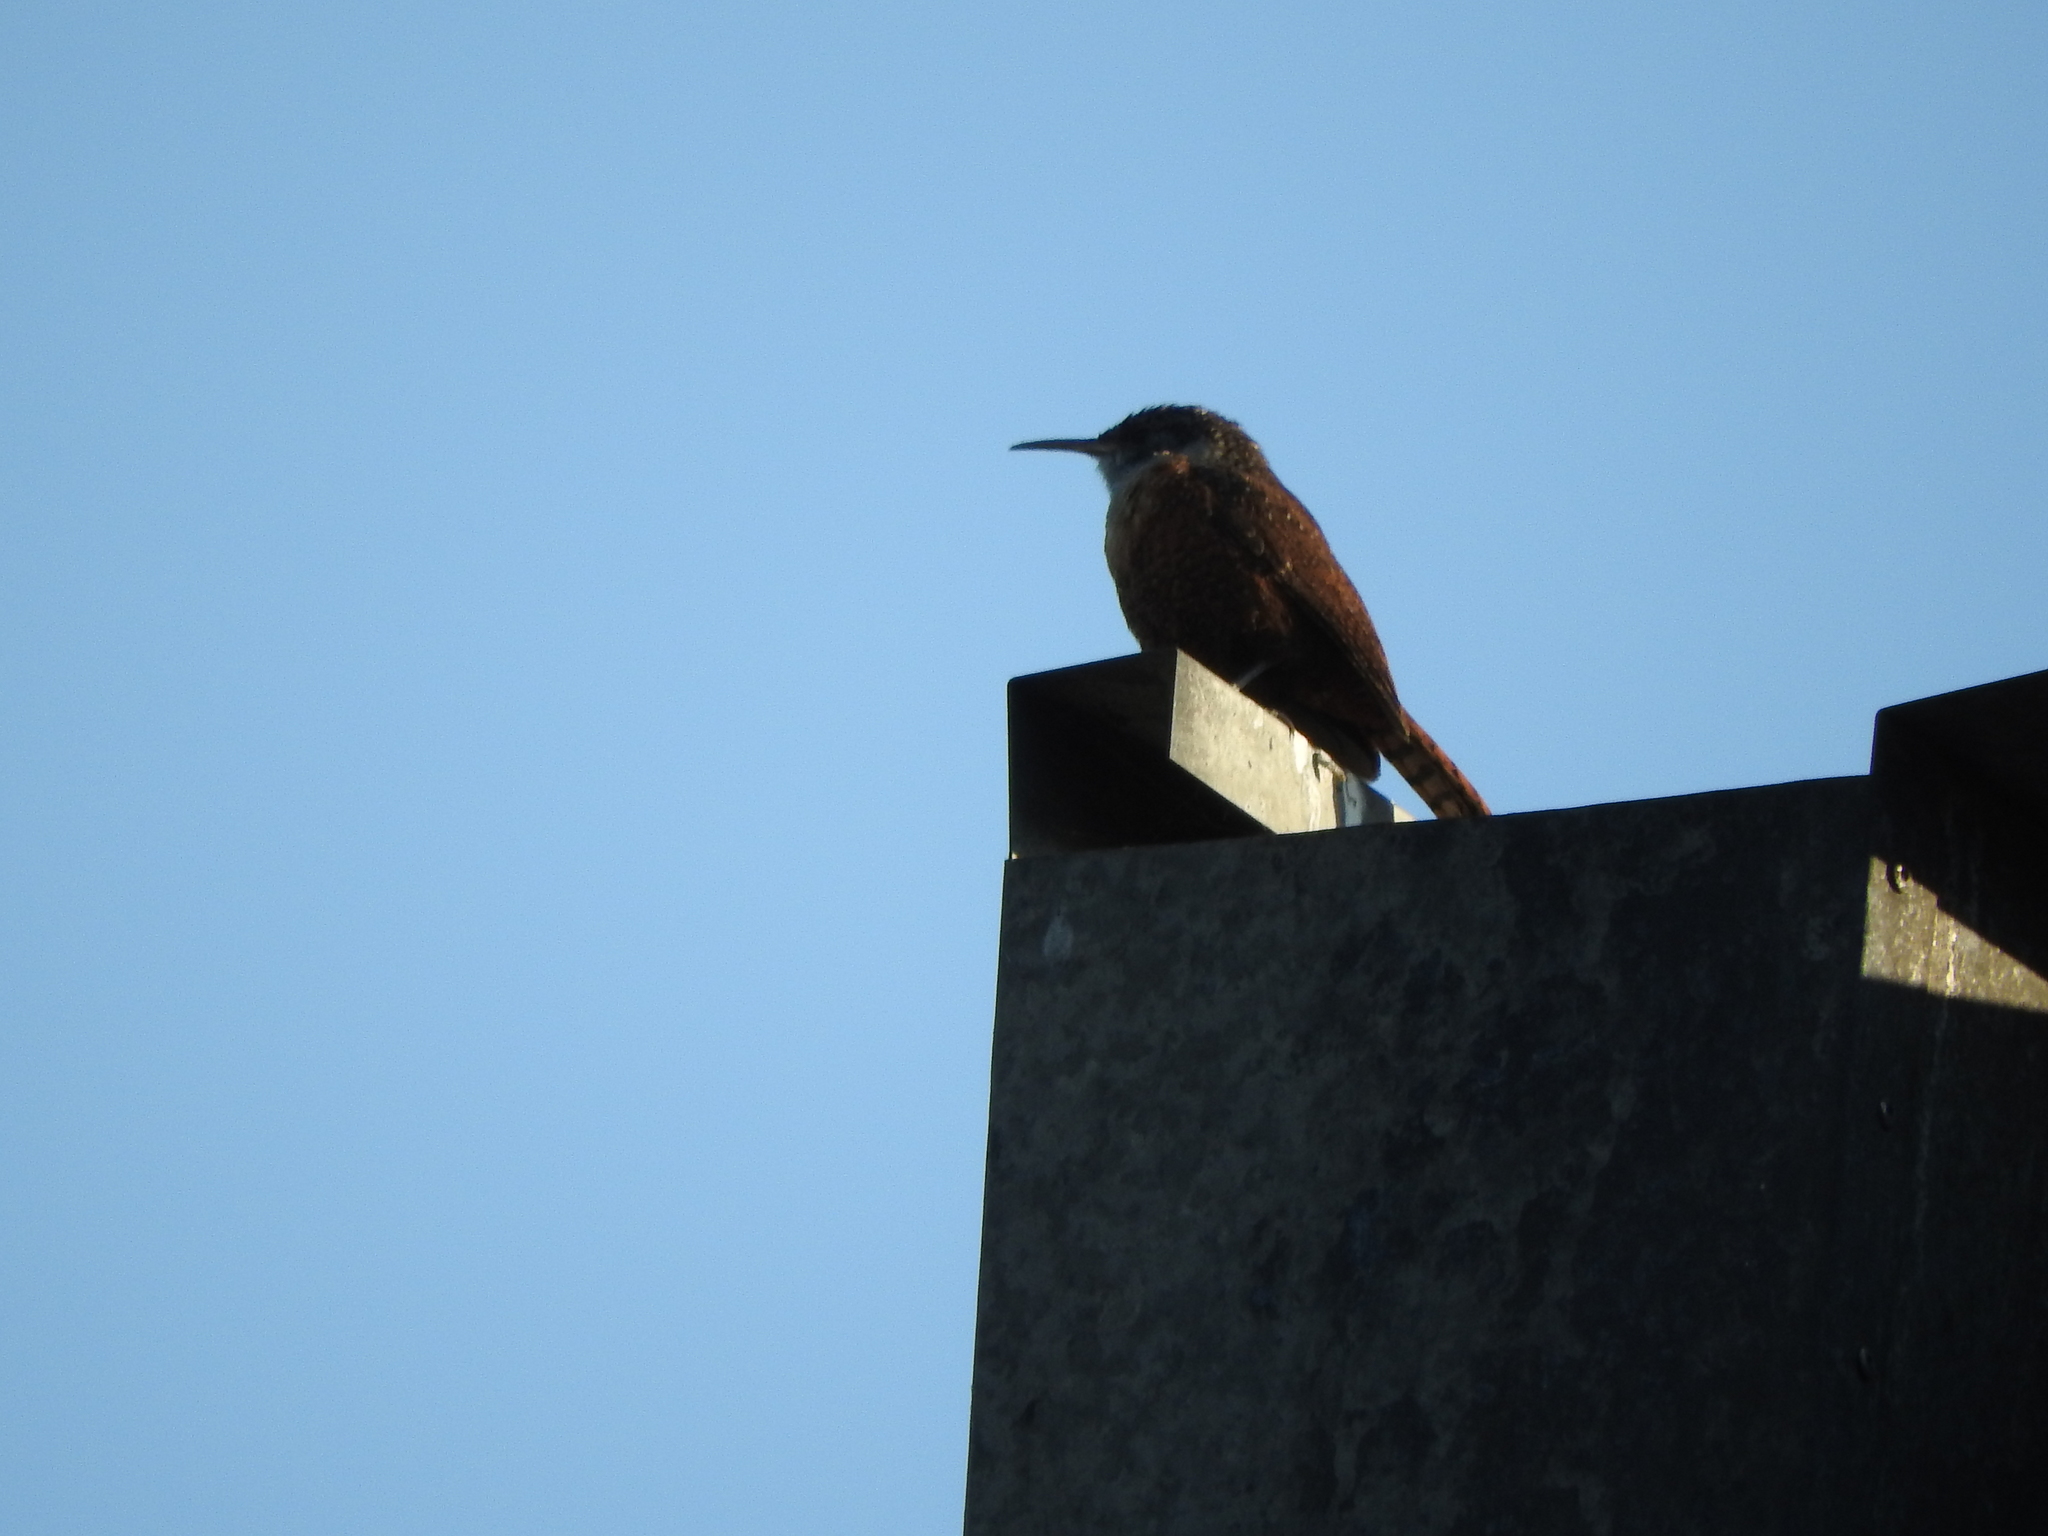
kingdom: Animalia
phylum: Chordata
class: Aves
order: Passeriformes
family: Troglodytidae
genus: Catherpes
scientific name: Catherpes mexicanus
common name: Canyon wren
